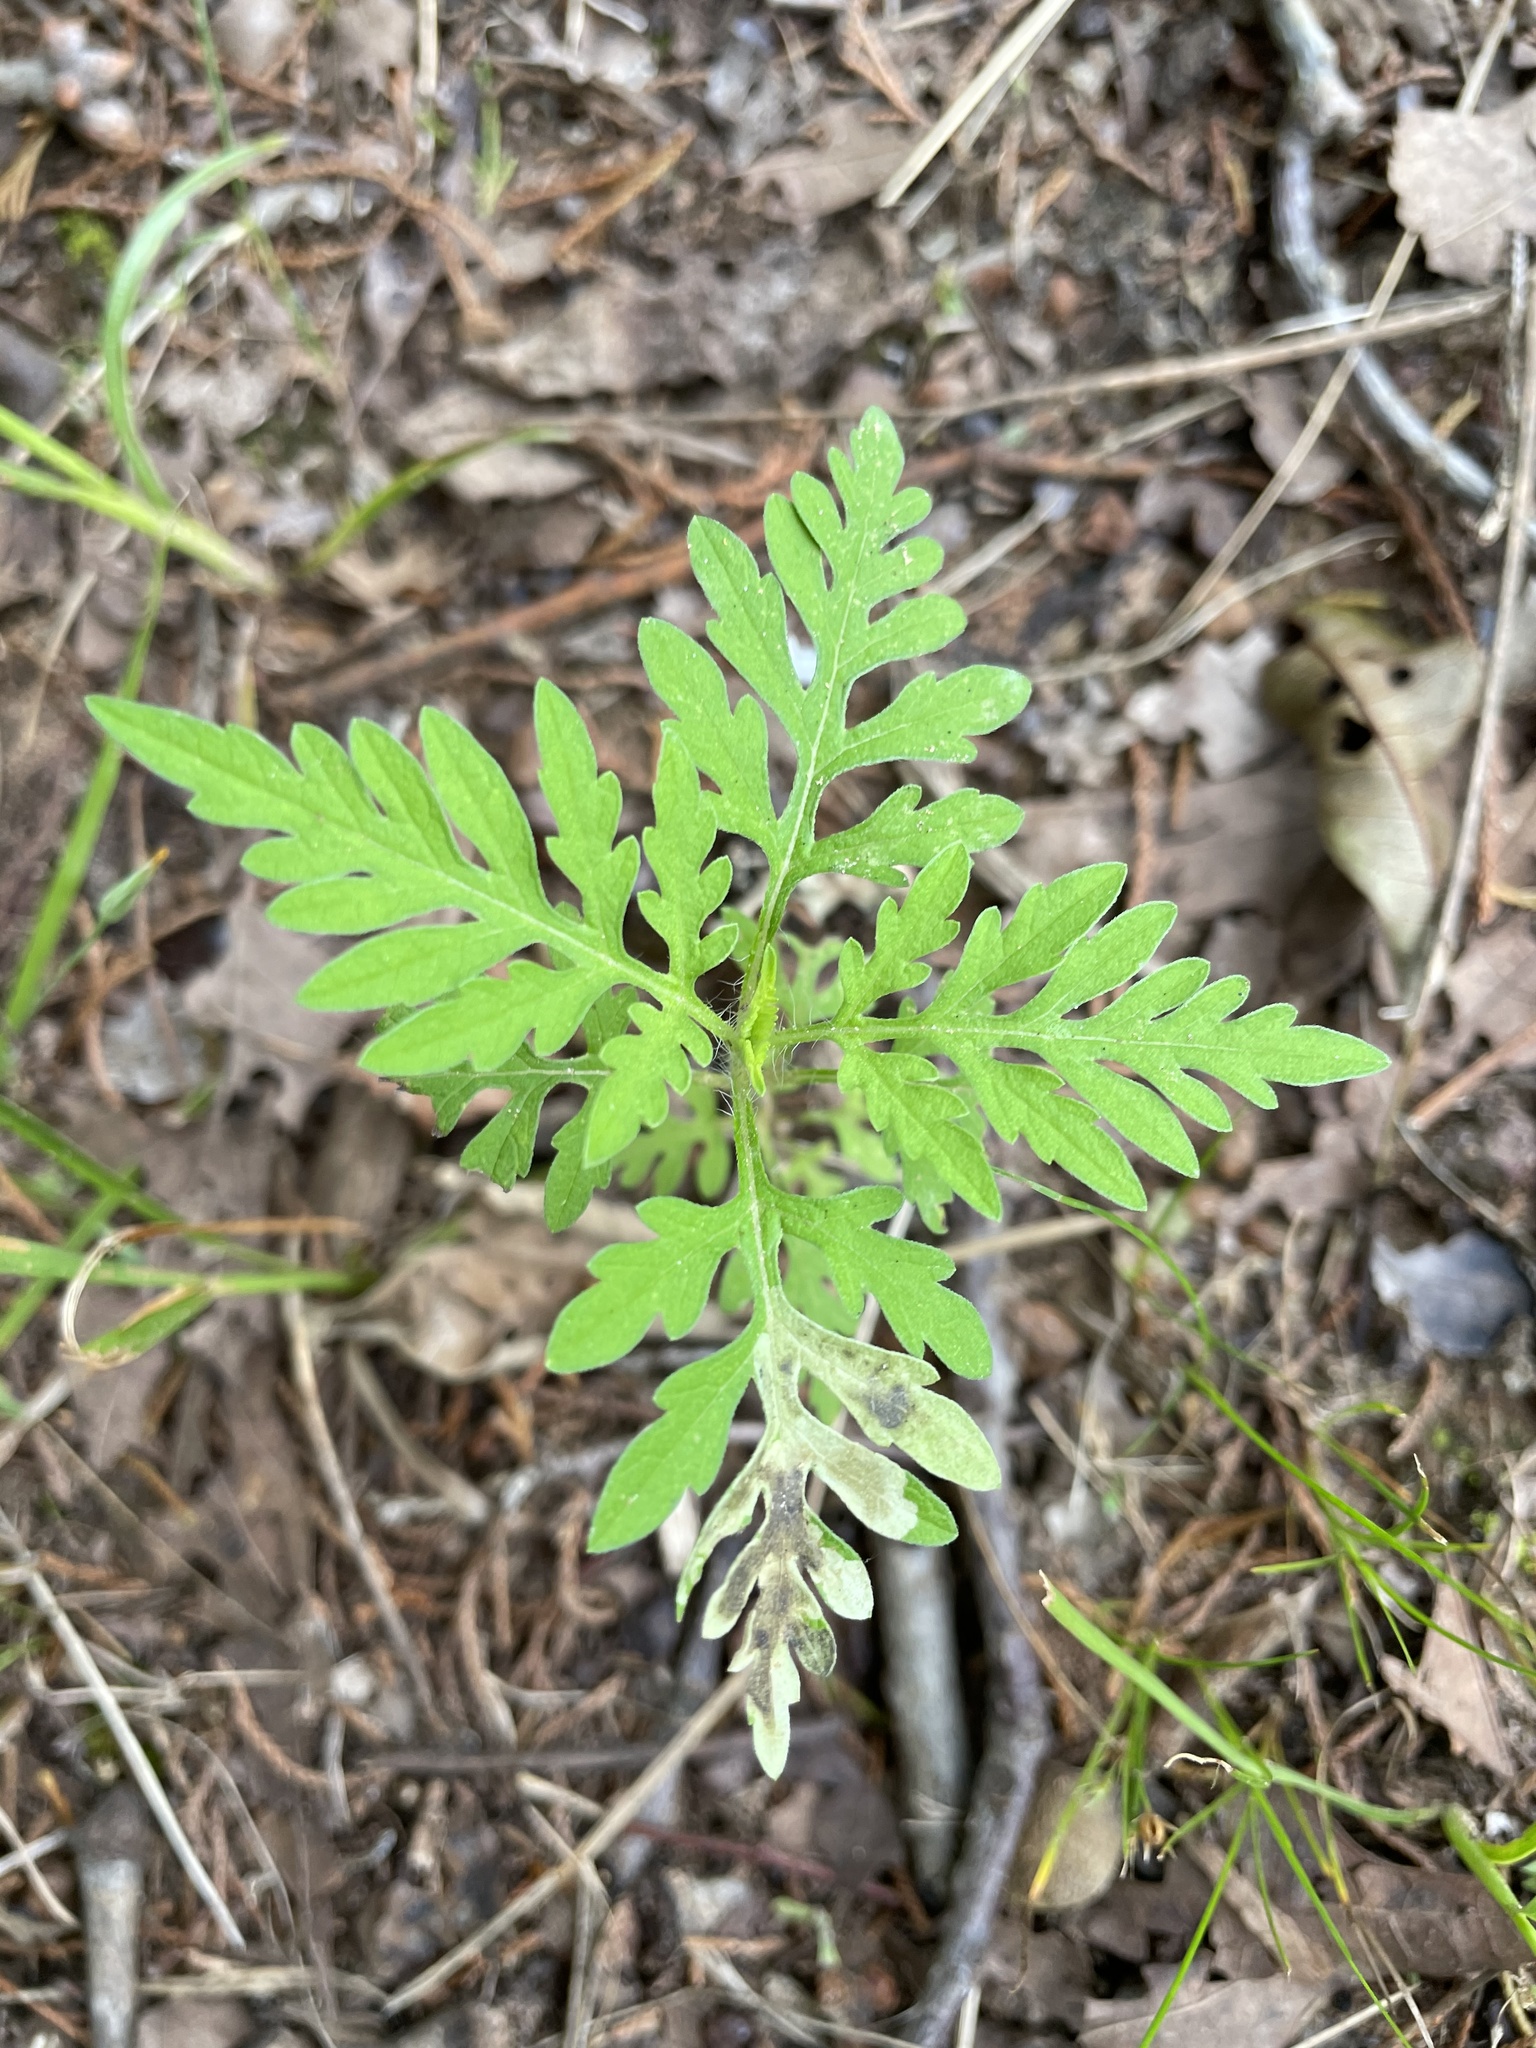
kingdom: Animalia
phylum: Arthropoda
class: Insecta
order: Diptera
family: Agromyzidae
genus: Calycomyza
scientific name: Calycomyza ambrosiae
